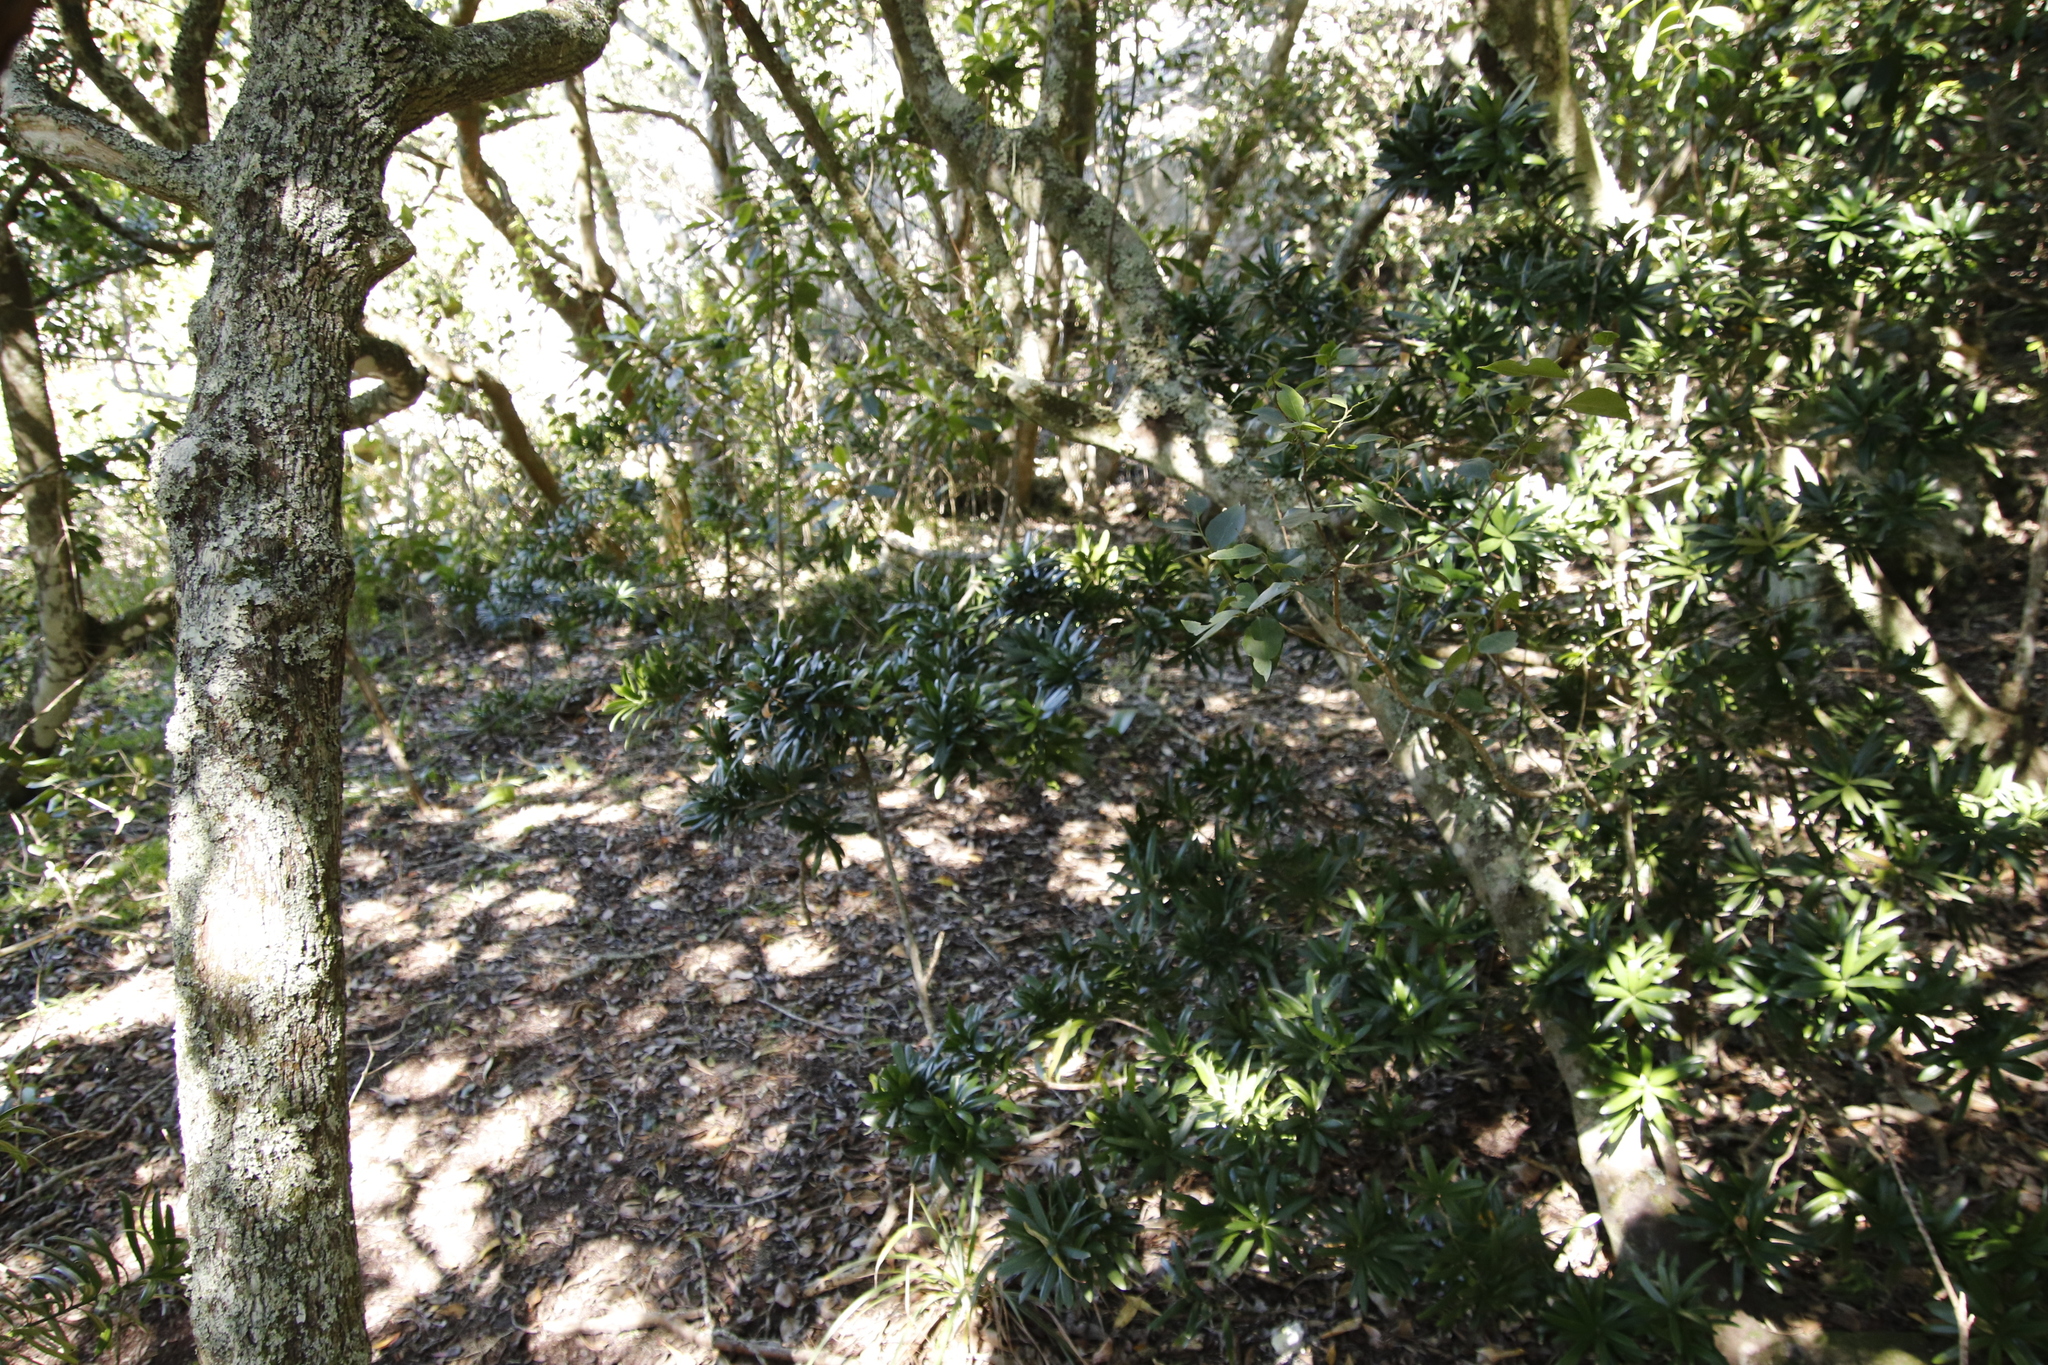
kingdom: Plantae
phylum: Tracheophyta
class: Pinopsida
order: Pinales
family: Podocarpaceae
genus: Podocarpus
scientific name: Podocarpus latifolius
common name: True yellowwood
